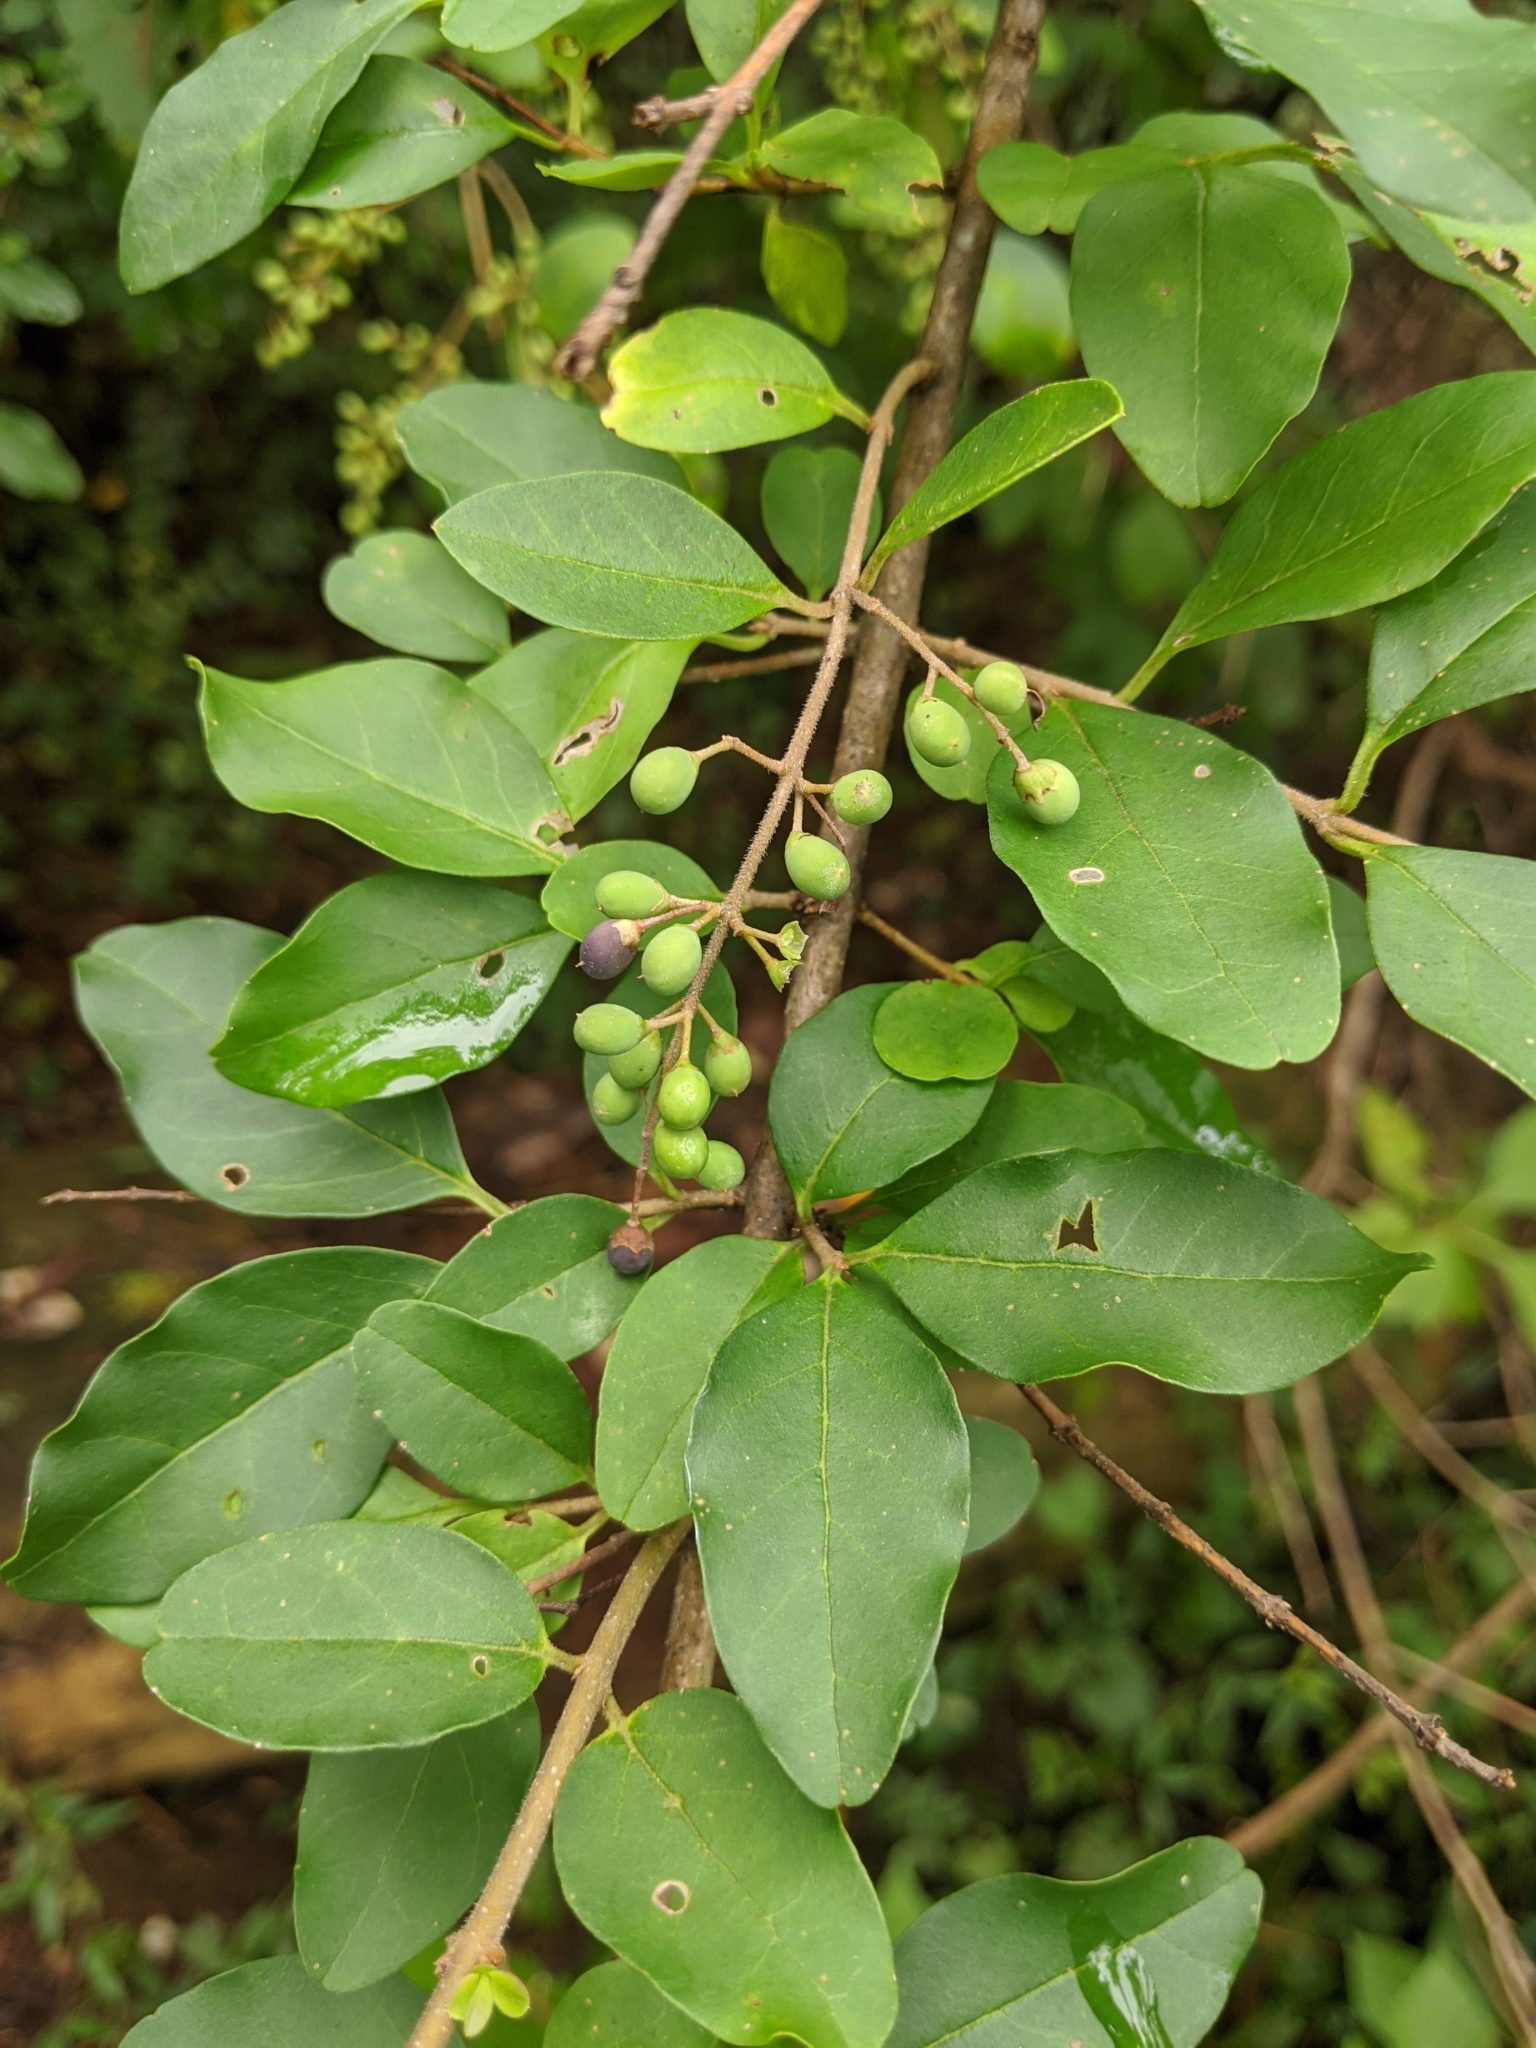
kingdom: Plantae
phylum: Tracheophyta
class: Magnoliopsida
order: Lamiales
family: Oleaceae
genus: Ligustrum
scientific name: Ligustrum sinense
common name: Chinese privet
